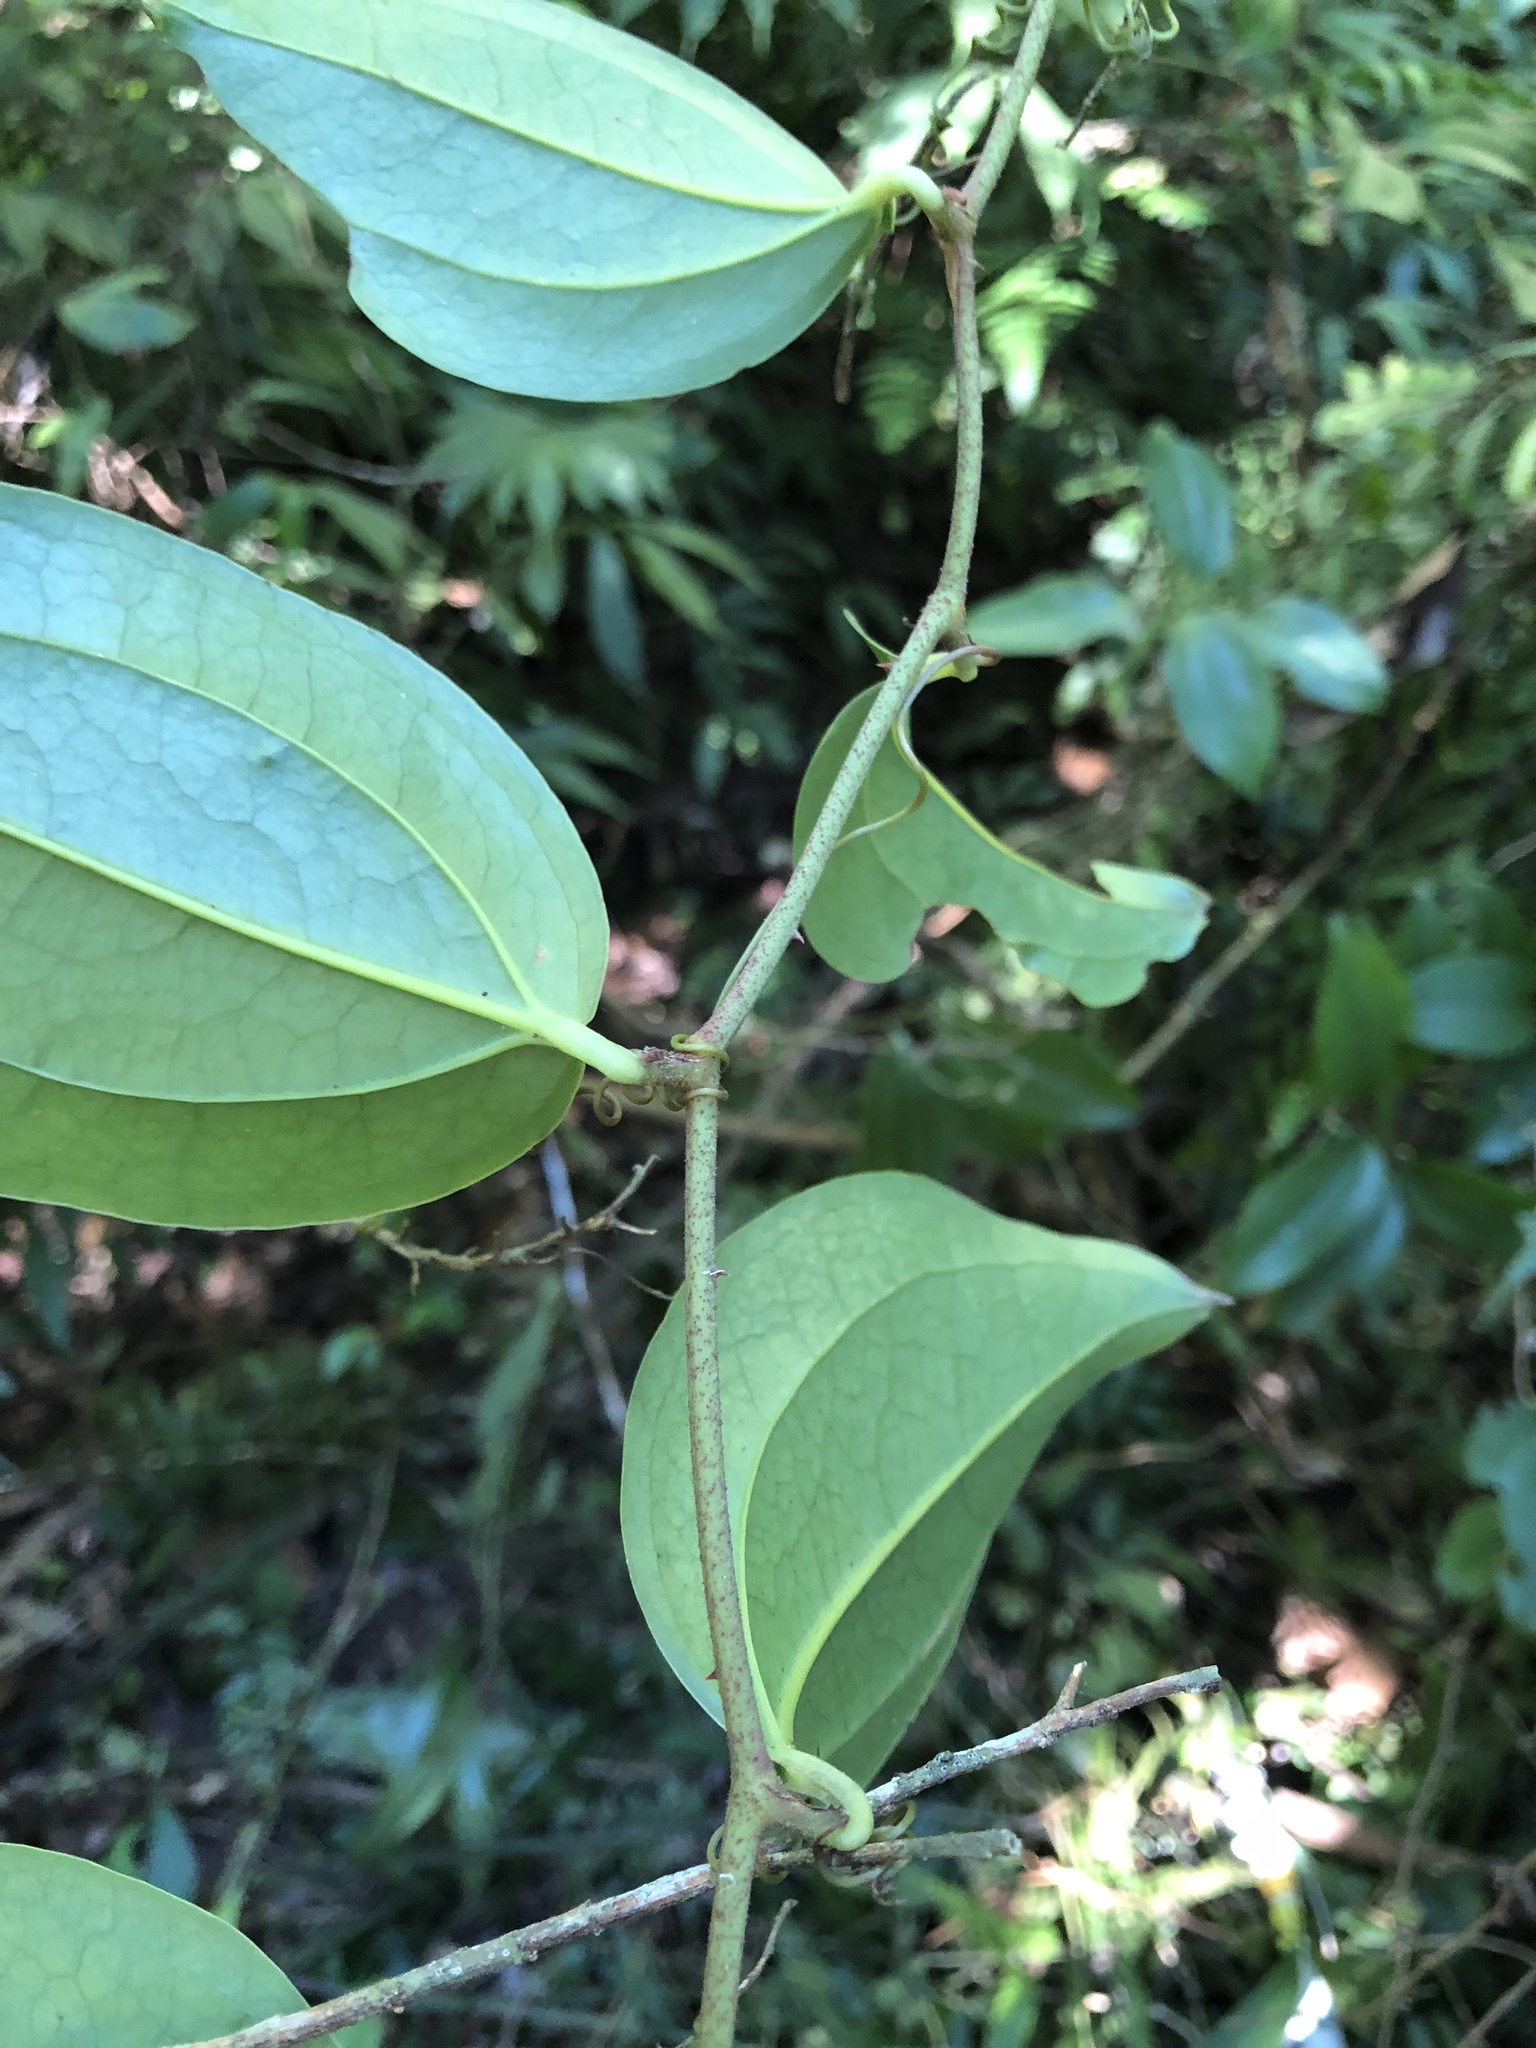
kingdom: Plantae
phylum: Tracheophyta
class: Liliopsida
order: Liliales
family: Smilacaceae
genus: Smilax
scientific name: Smilax aspericaulis
